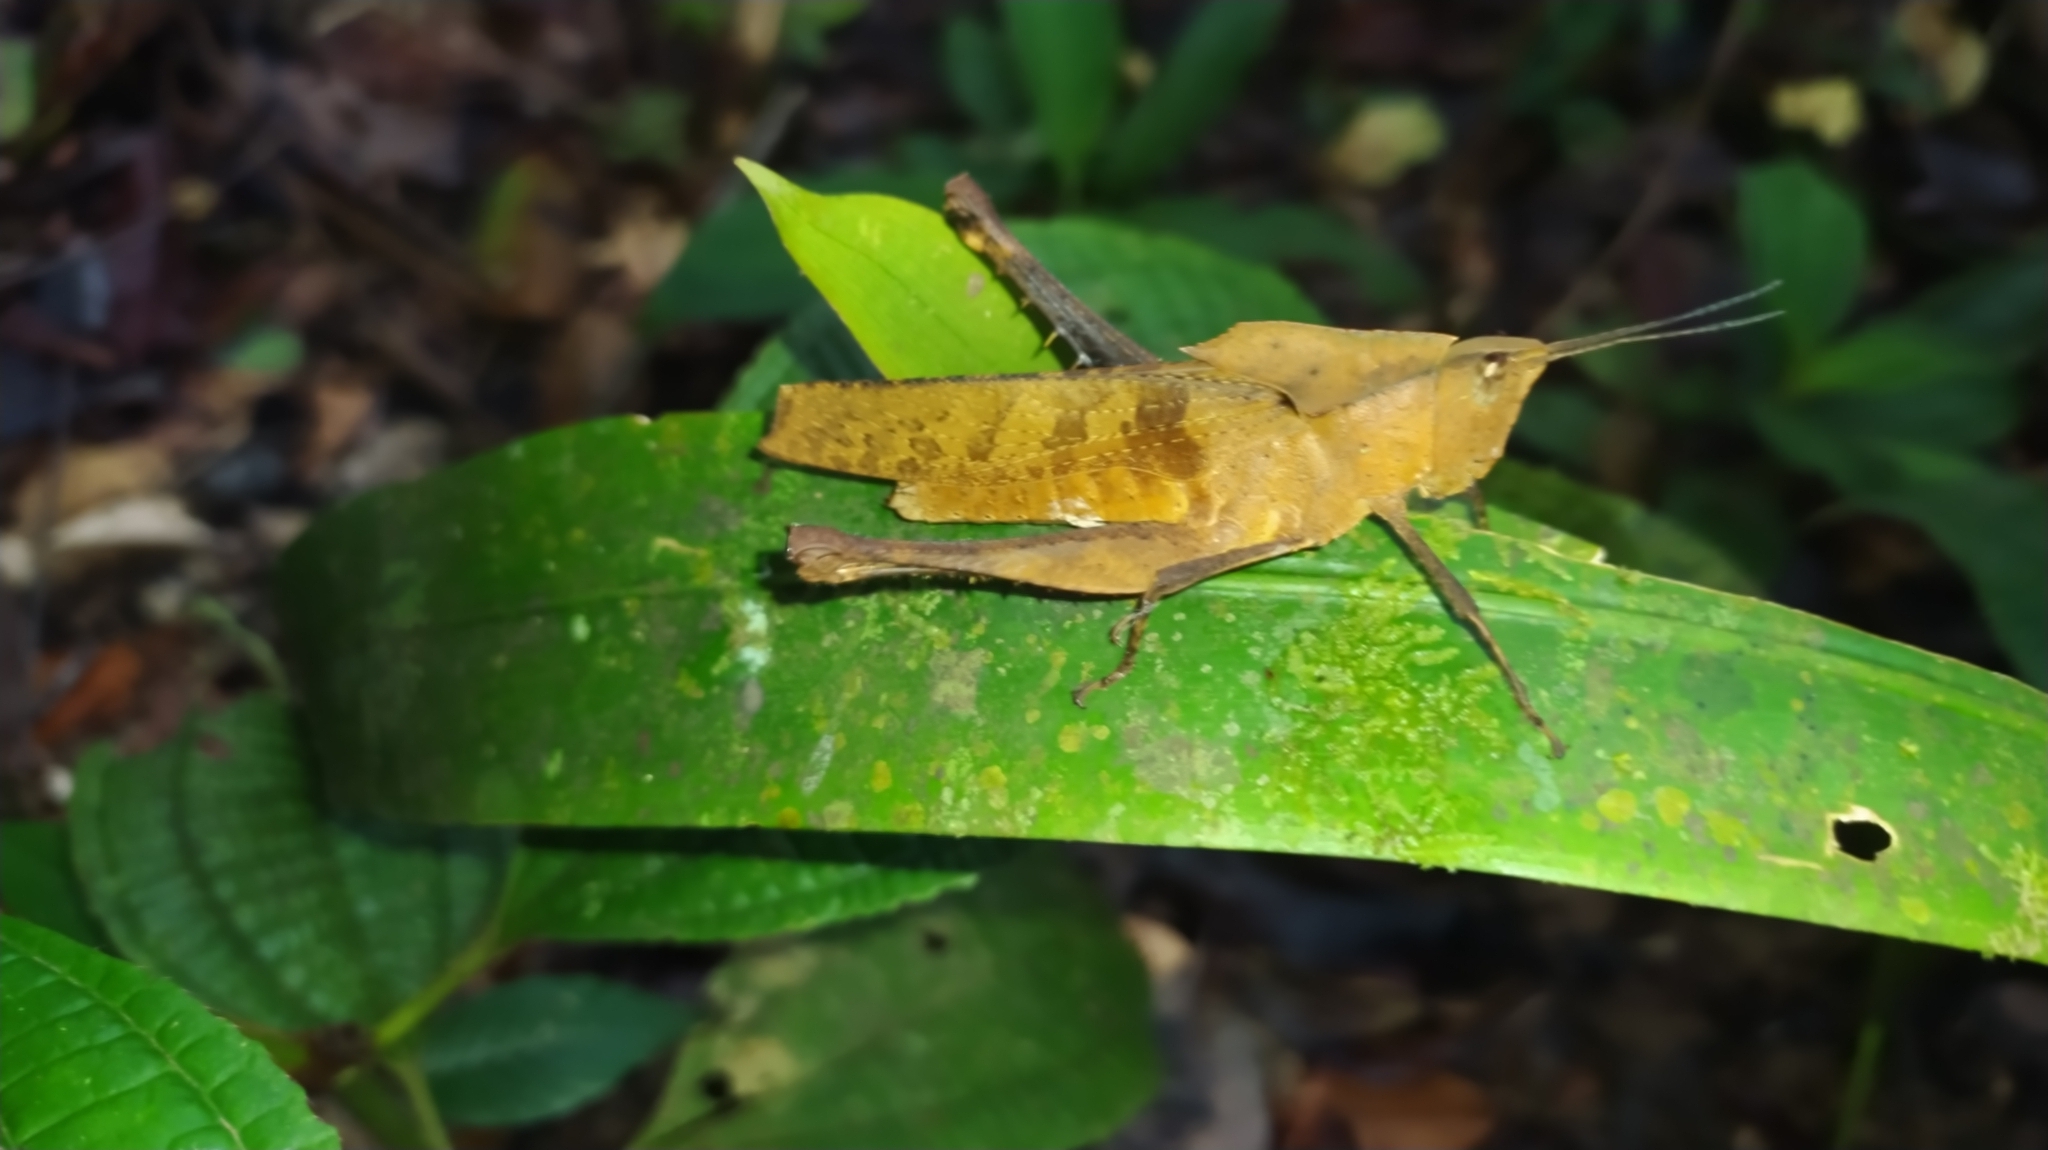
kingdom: Animalia
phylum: Arthropoda
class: Insecta
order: Orthoptera
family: Romaleidae
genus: Colpolopha
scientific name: Colpolopha obsoleta
